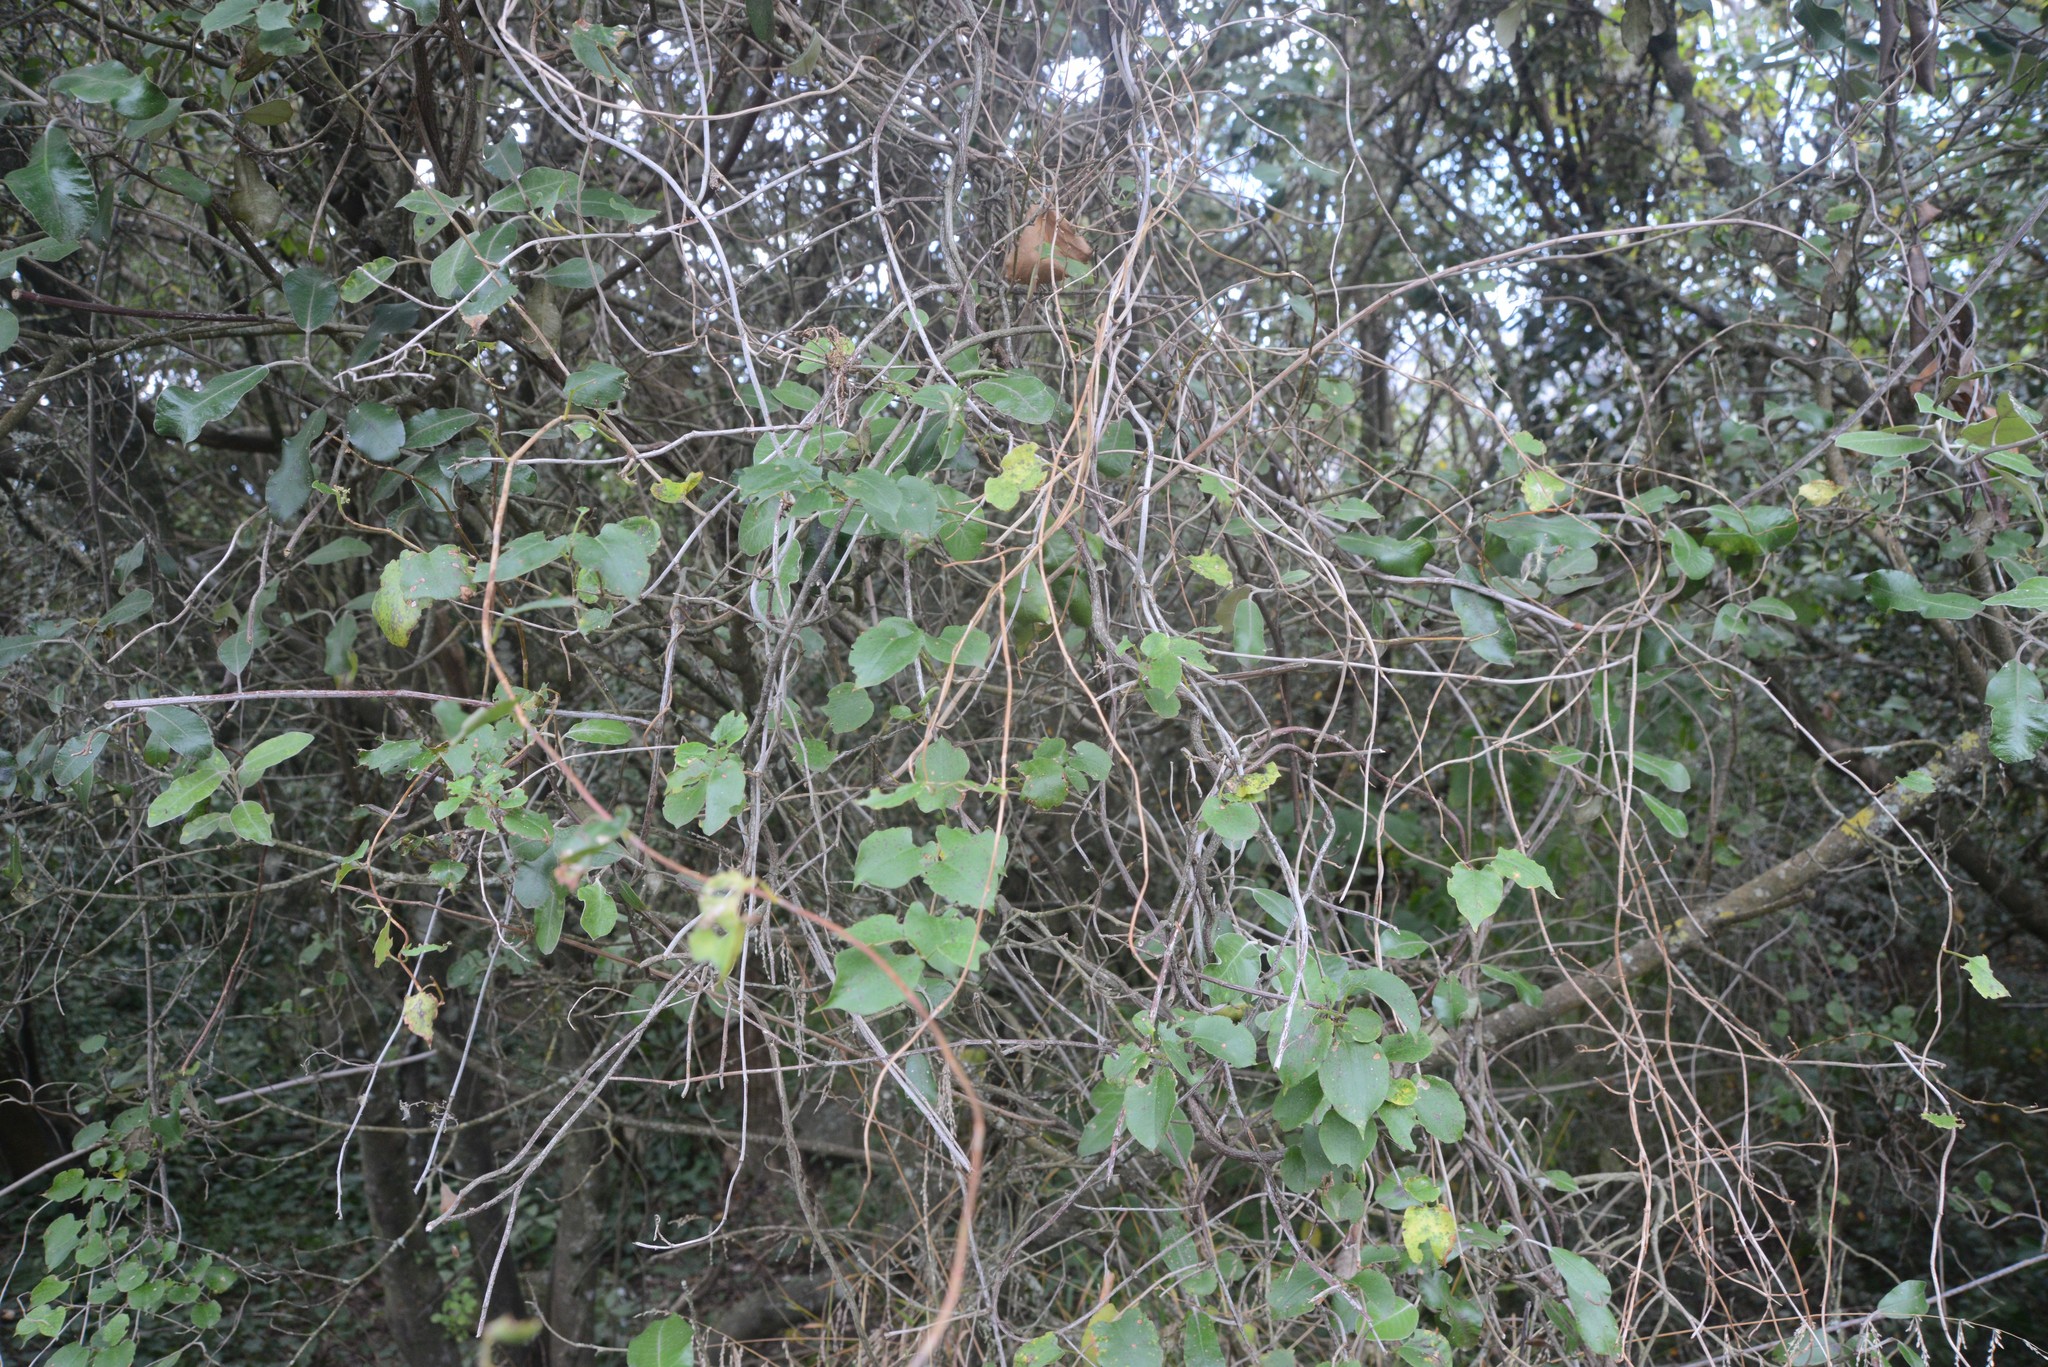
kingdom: Plantae
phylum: Tracheophyta
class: Magnoliopsida
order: Caryophyllales
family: Polygonaceae
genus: Muehlenbeckia
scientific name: Muehlenbeckia australis
